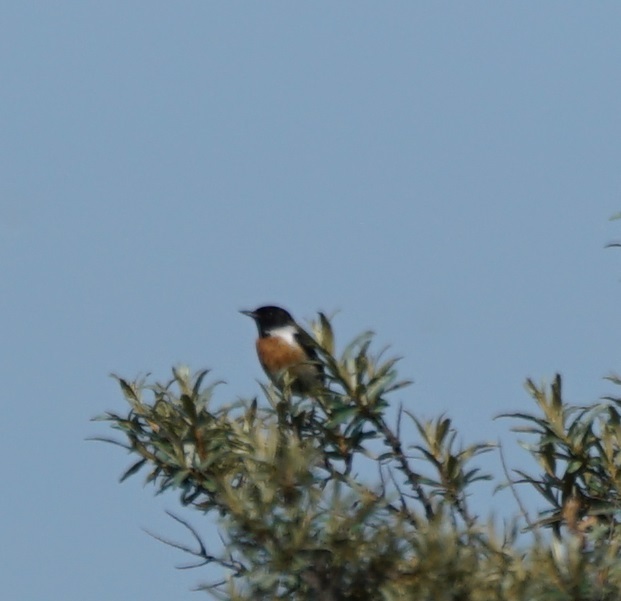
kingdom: Animalia
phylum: Chordata
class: Aves
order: Passeriformes
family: Muscicapidae
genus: Saxicola
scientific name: Saxicola rubicola
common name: European stonechat
